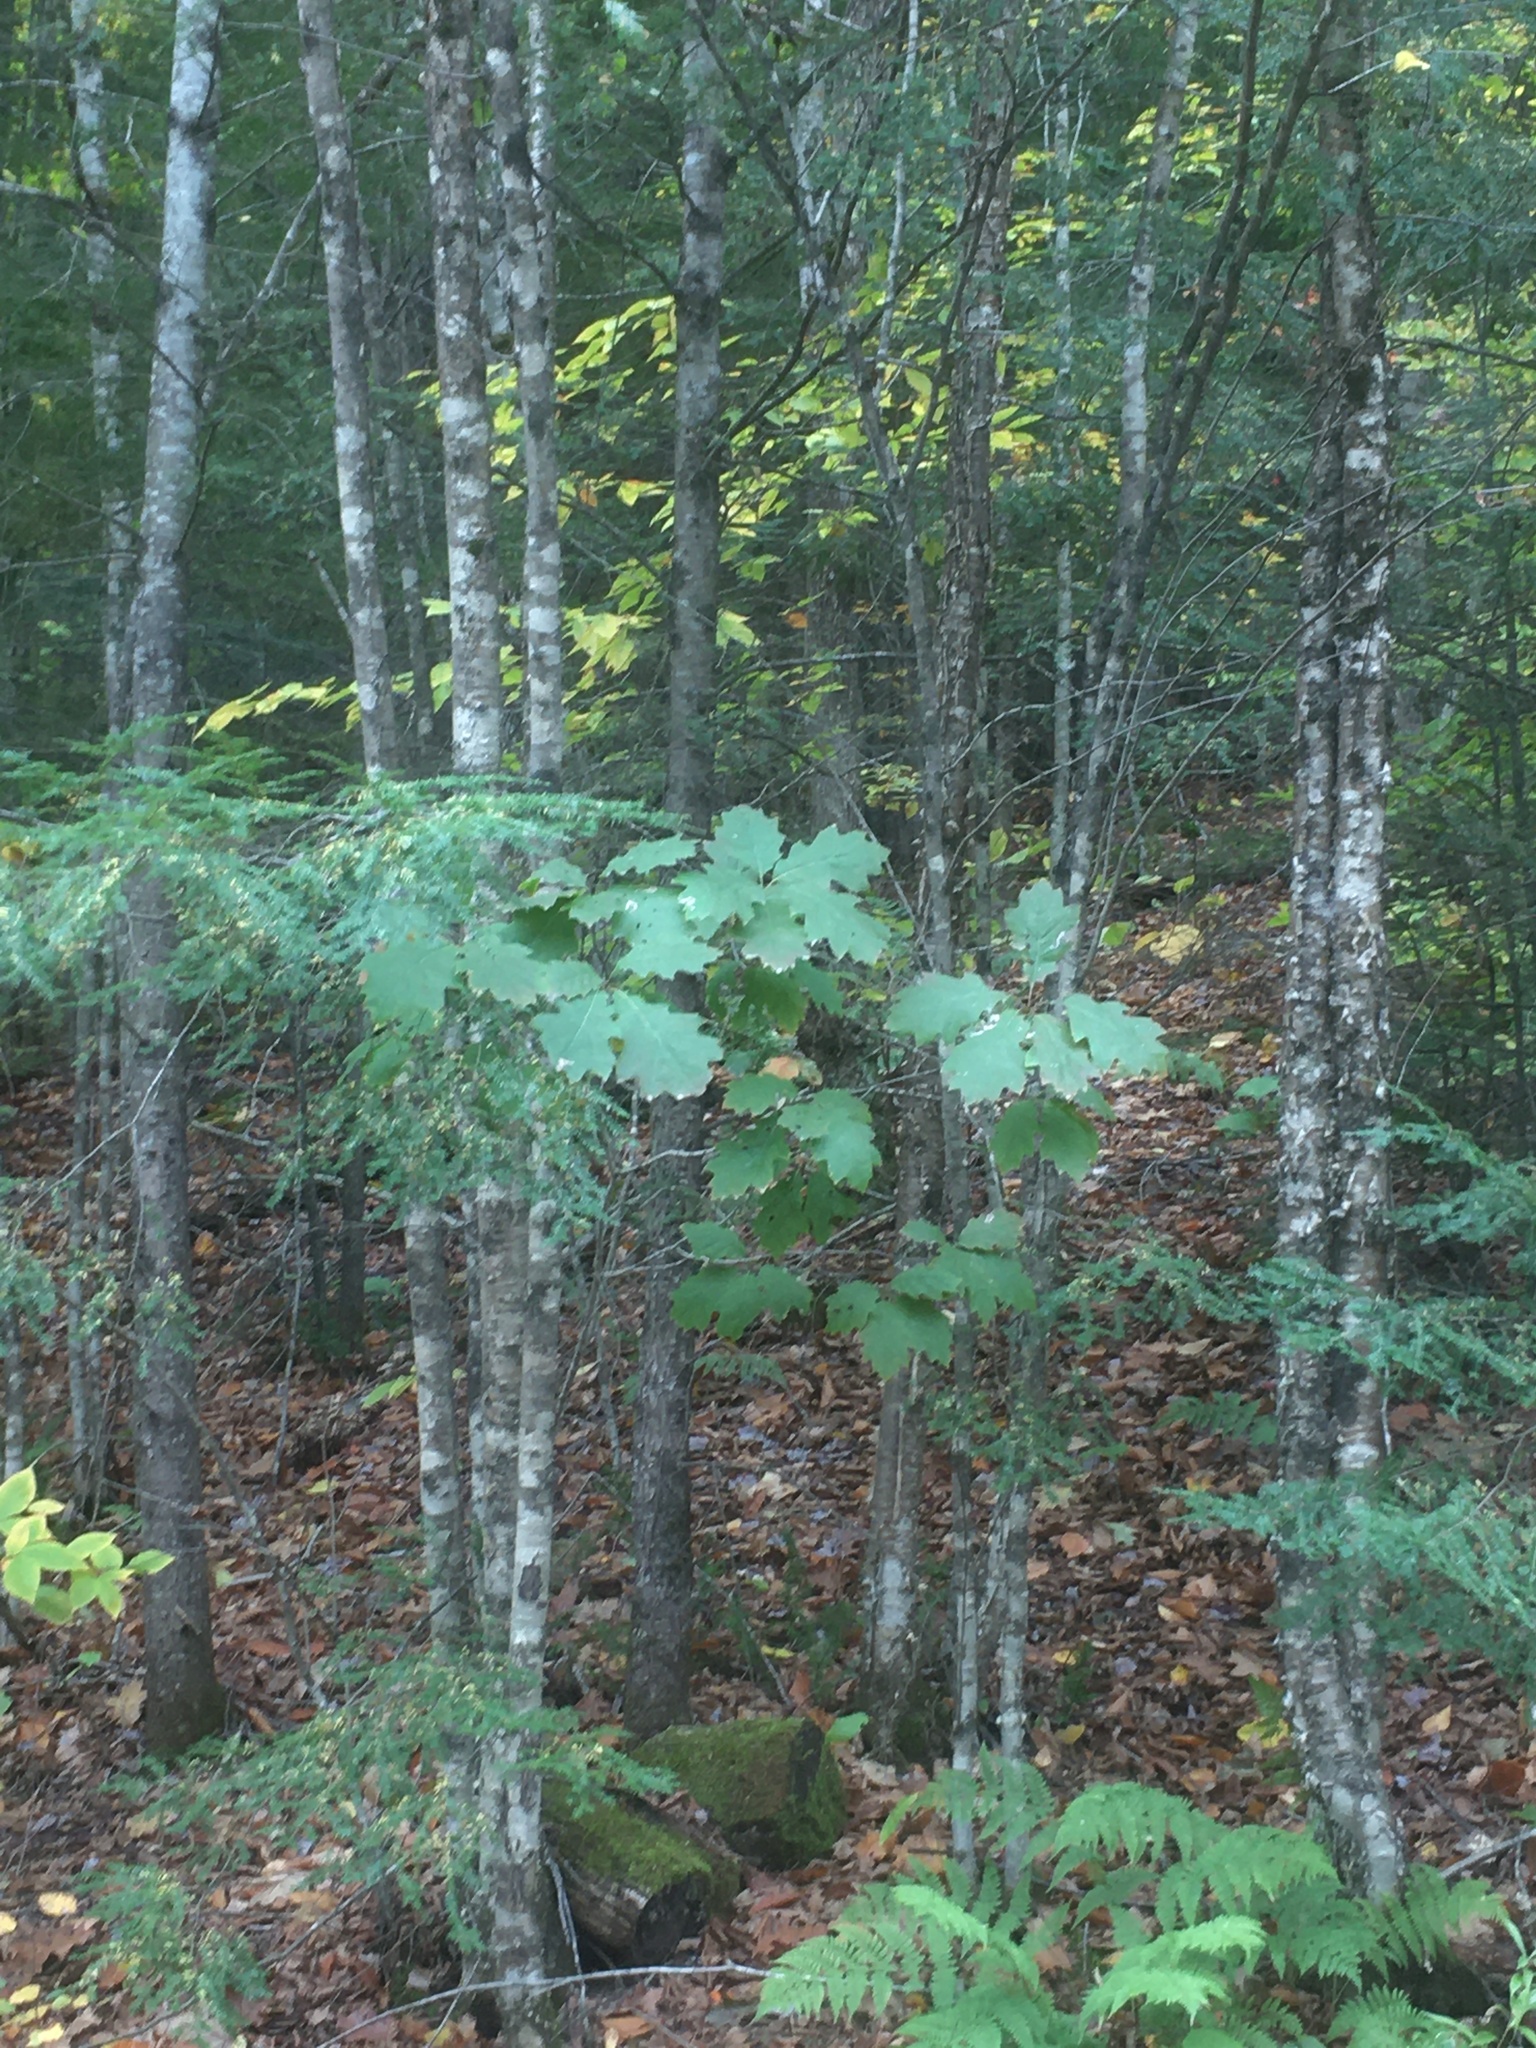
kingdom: Plantae
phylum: Tracheophyta
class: Magnoliopsida
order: Fagales
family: Fagaceae
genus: Quercus
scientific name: Quercus rubra
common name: Red oak
